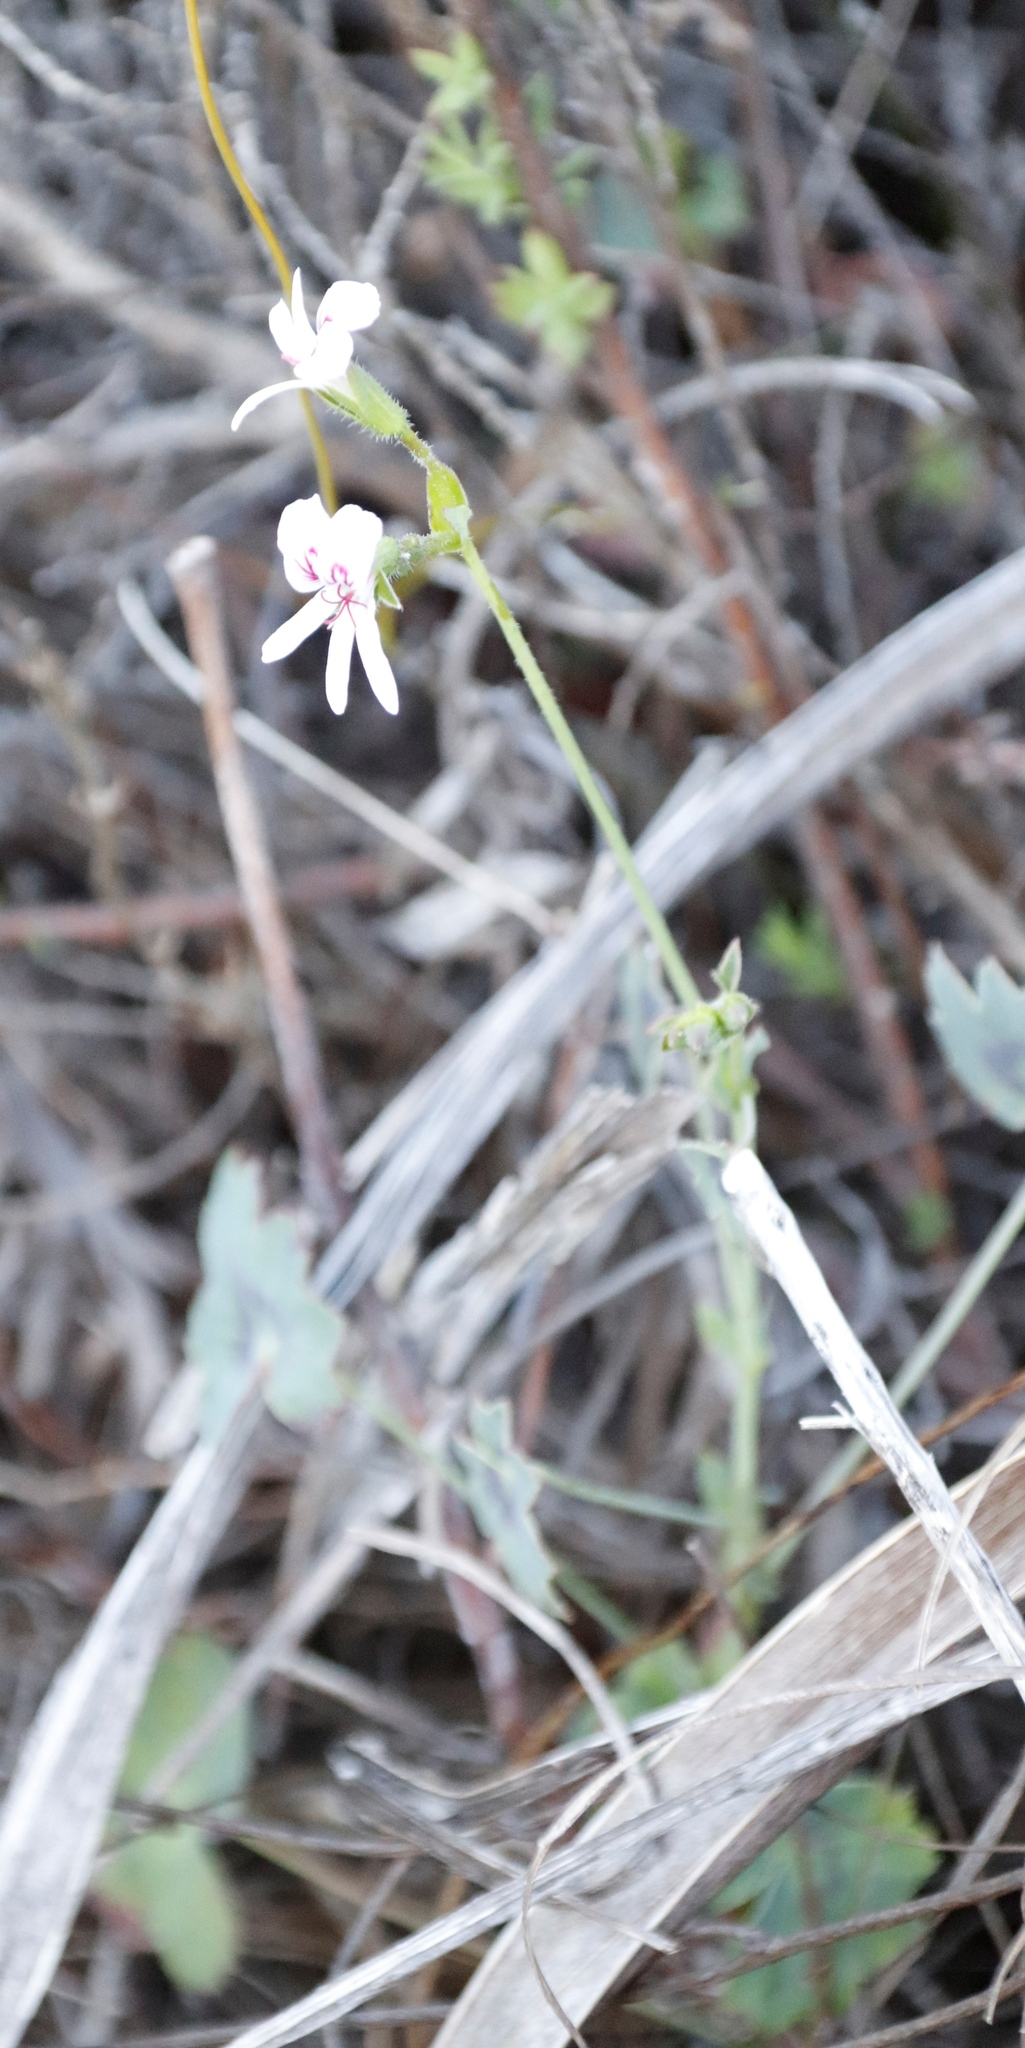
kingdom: Plantae
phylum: Tracheophyta
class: Magnoliopsida
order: Geraniales
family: Geraniaceae
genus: Pelargonium
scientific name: Pelargonium tabulare
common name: Table mountain pelargonium
